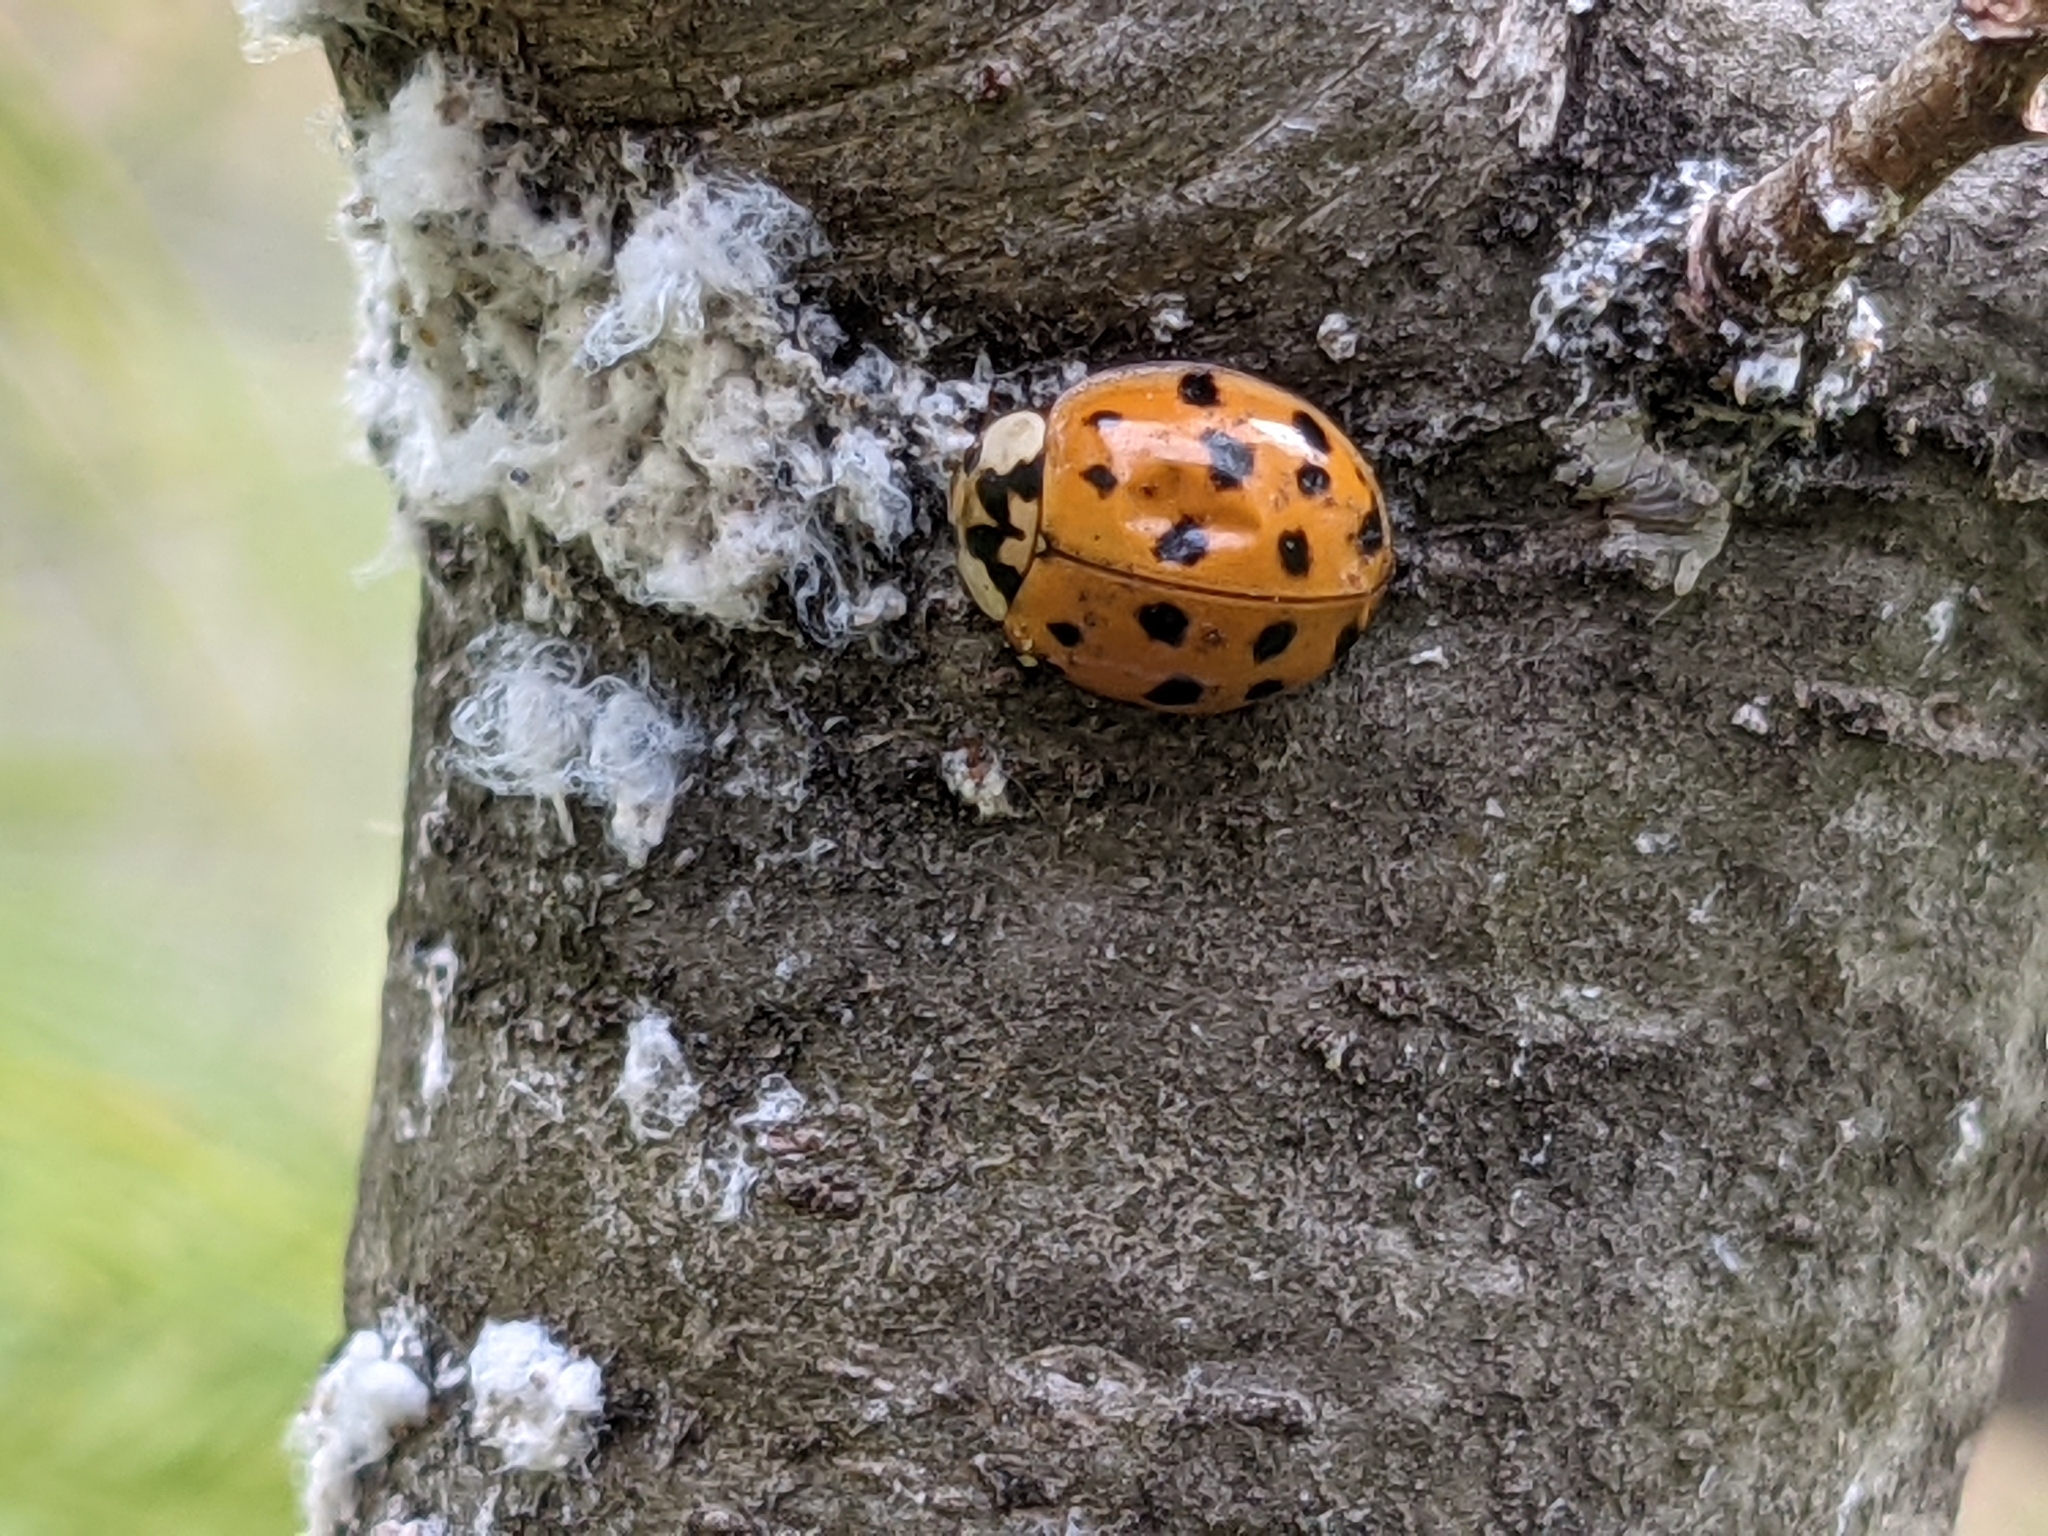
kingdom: Animalia
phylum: Arthropoda
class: Insecta
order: Coleoptera
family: Coccinellidae
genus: Harmonia
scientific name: Harmonia axyridis
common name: Harlequin ladybird
